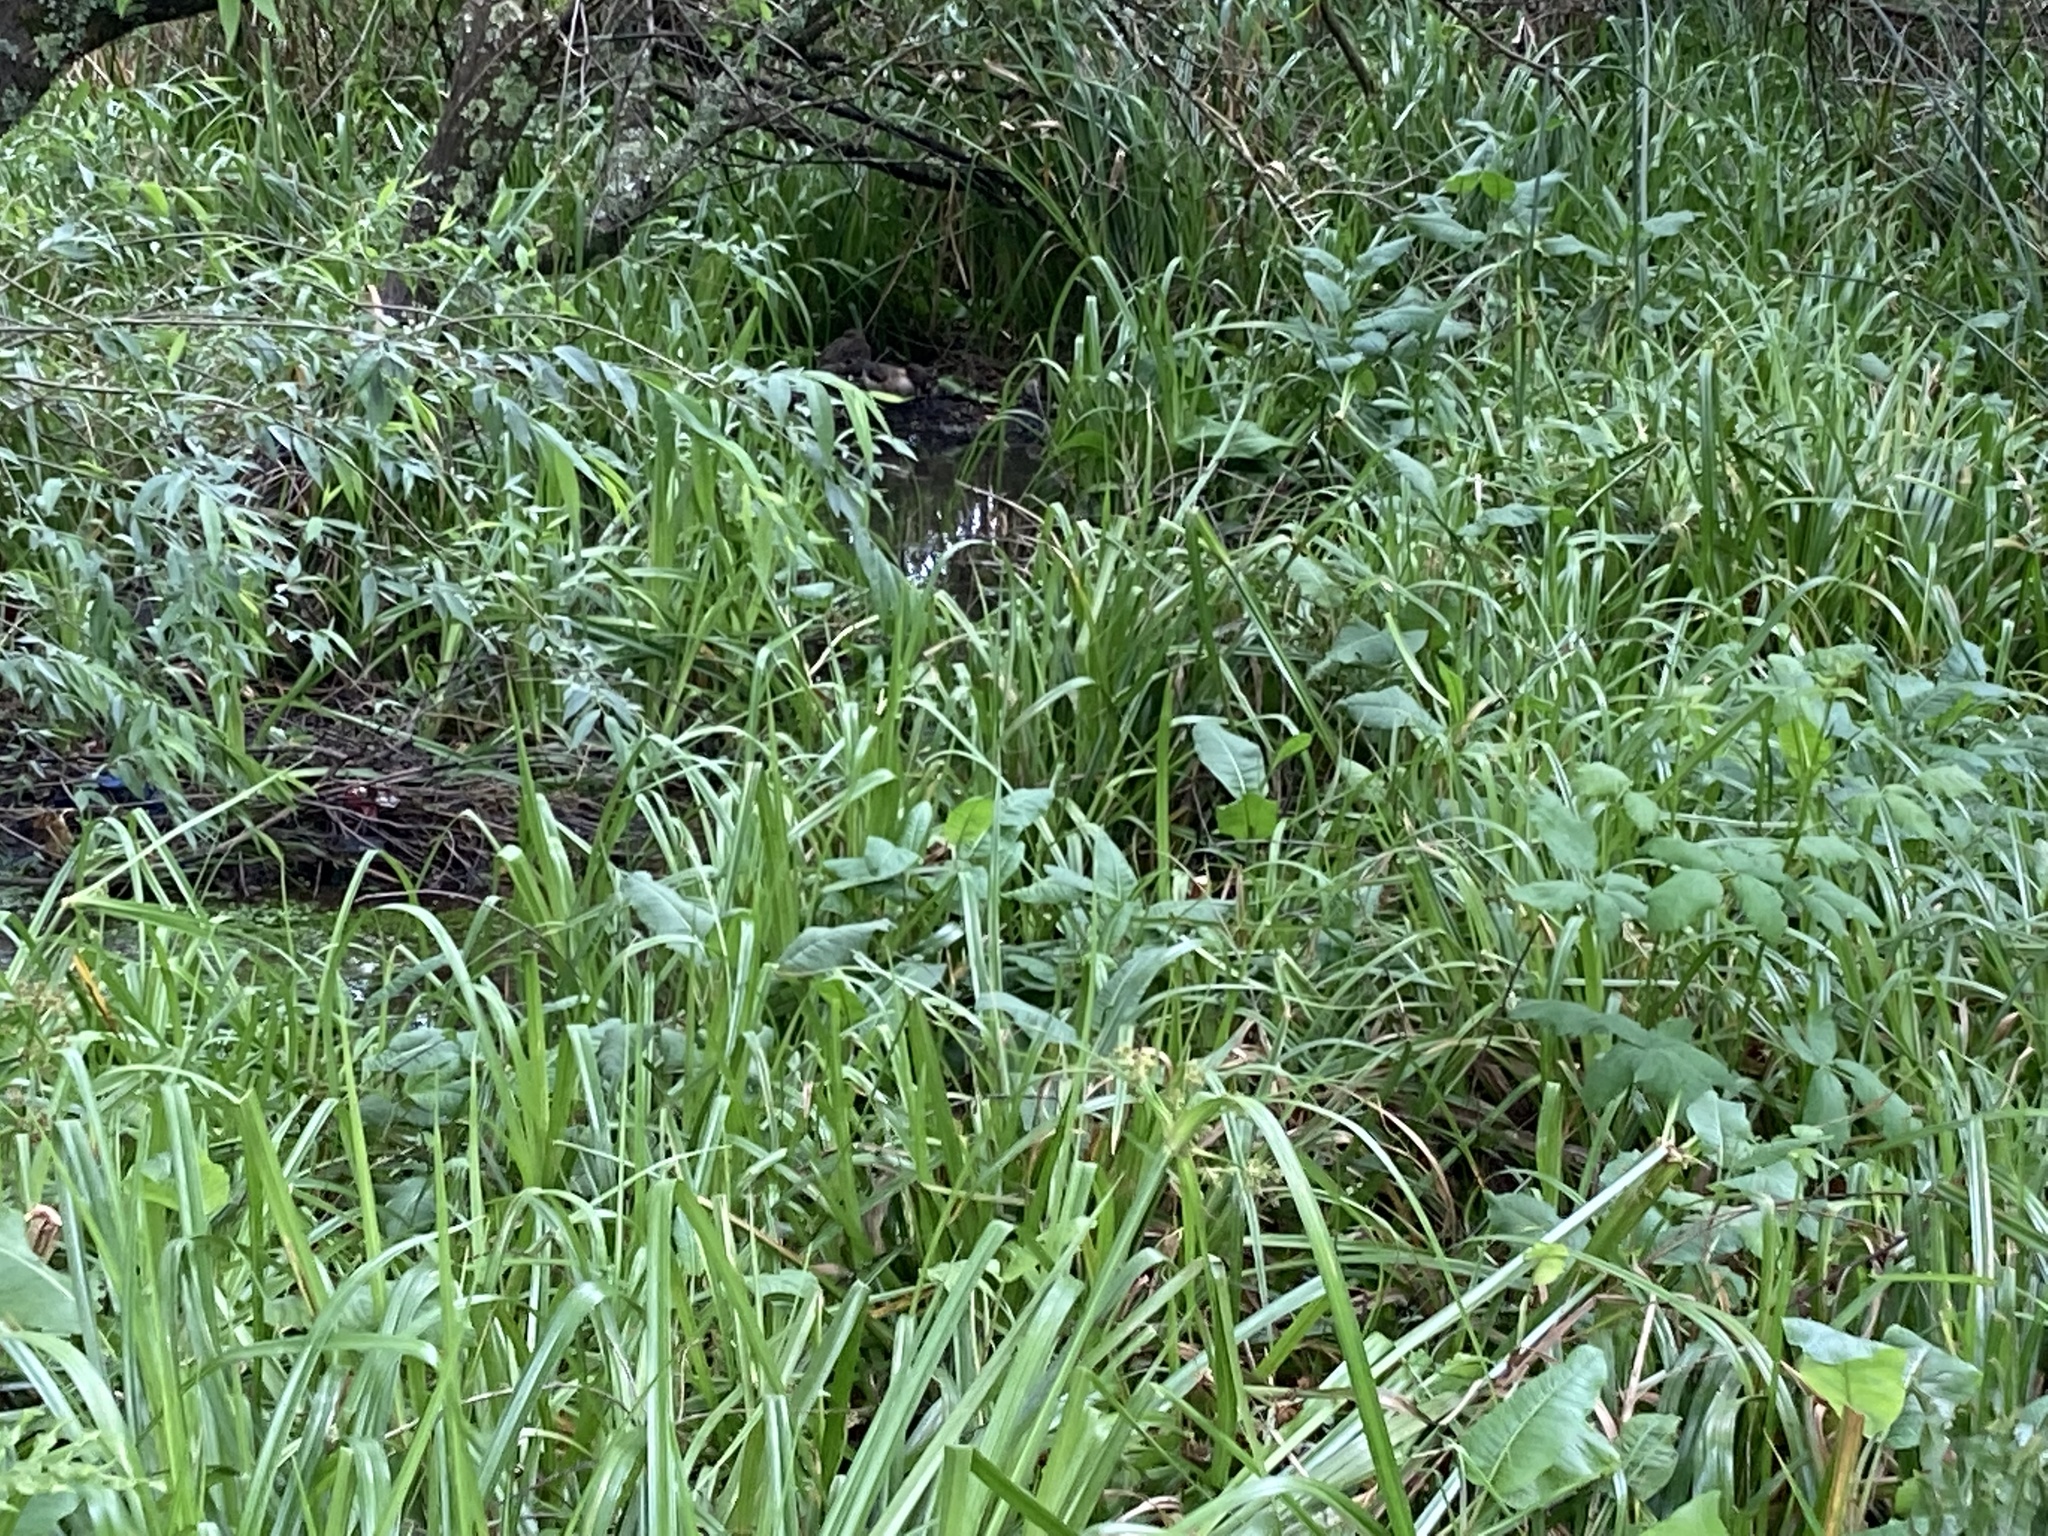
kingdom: Animalia
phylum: Chordata
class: Aves
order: Anseriformes
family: Anatidae
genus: Anas
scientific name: Anas flavirostris
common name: Yellow-billed teal
